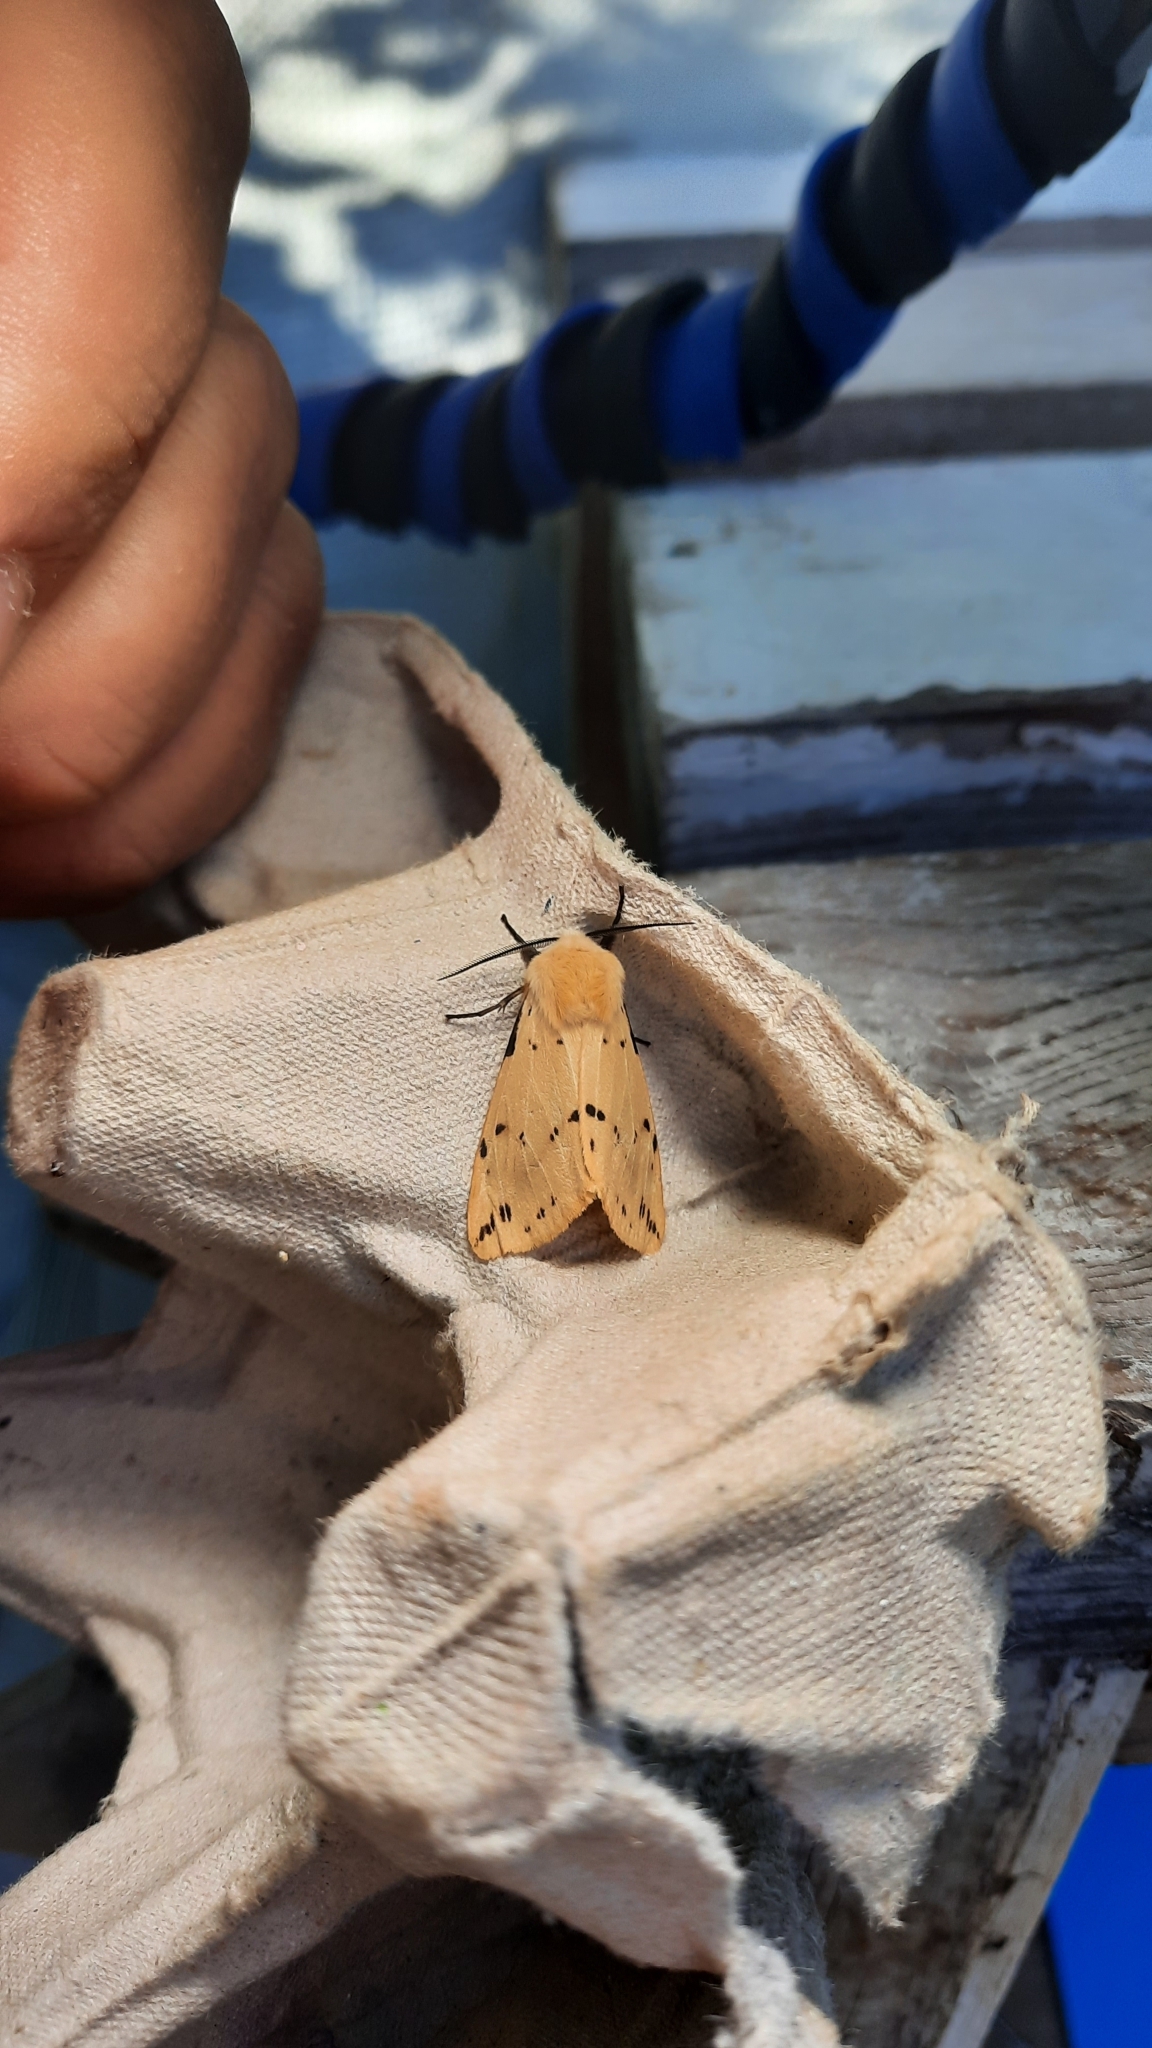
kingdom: Animalia
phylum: Arthropoda
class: Insecta
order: Lepidoptera
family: Erebidae
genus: Spilarctia
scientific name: Spilarctia lutea
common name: Buff ermine
